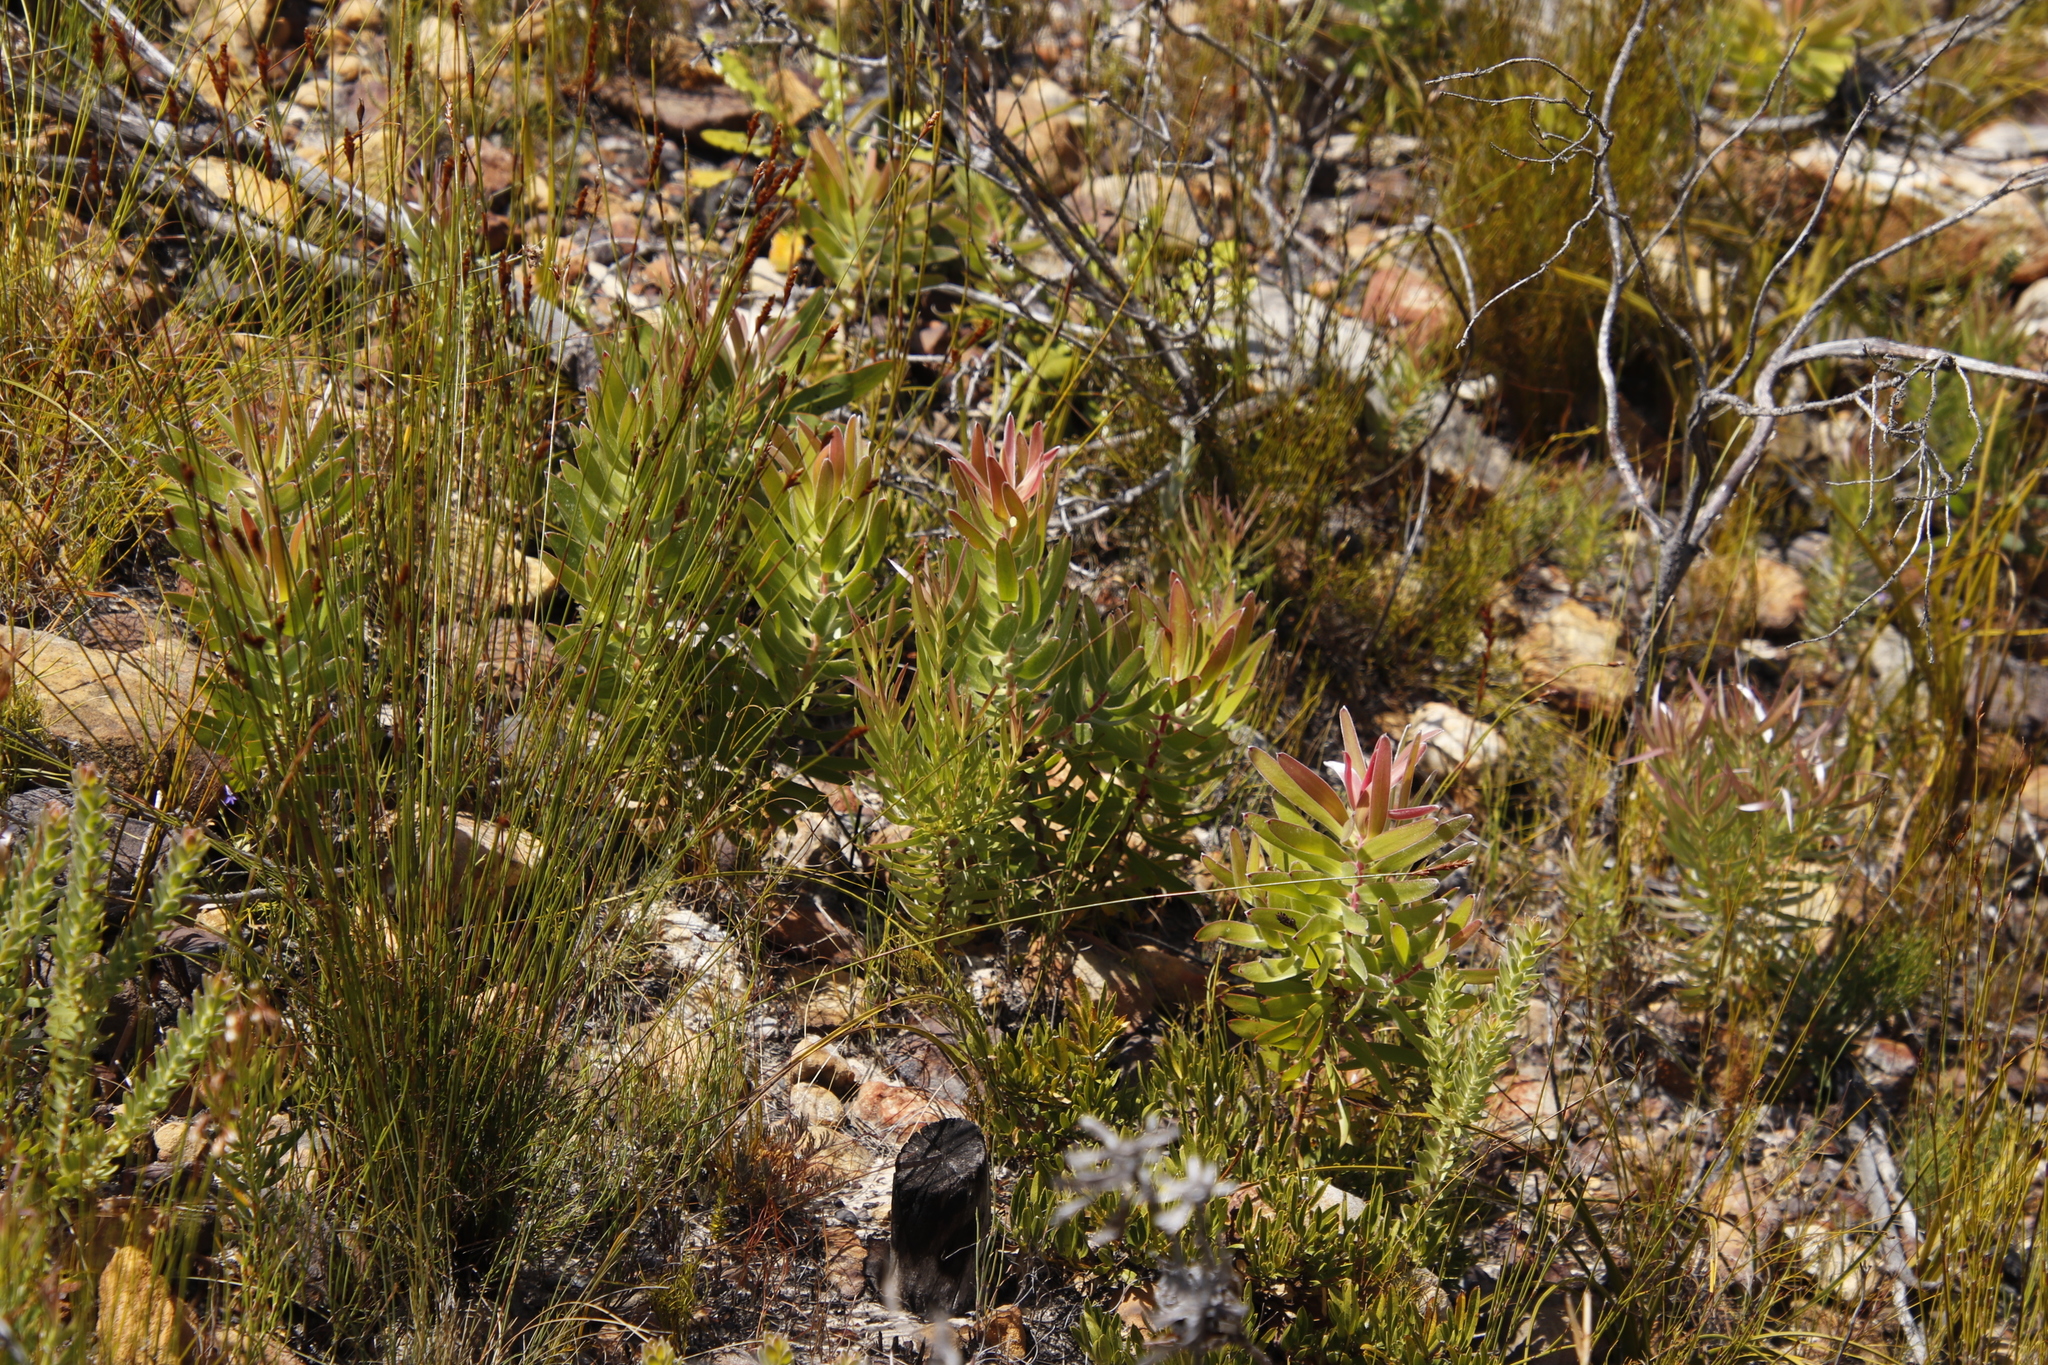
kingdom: Plantae
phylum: Tracheophyta
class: Magnoliopsida
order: Proteales
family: Proteaceae
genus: Leucadendron
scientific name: Leucadendron laureolum
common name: Golden sunshinebush
